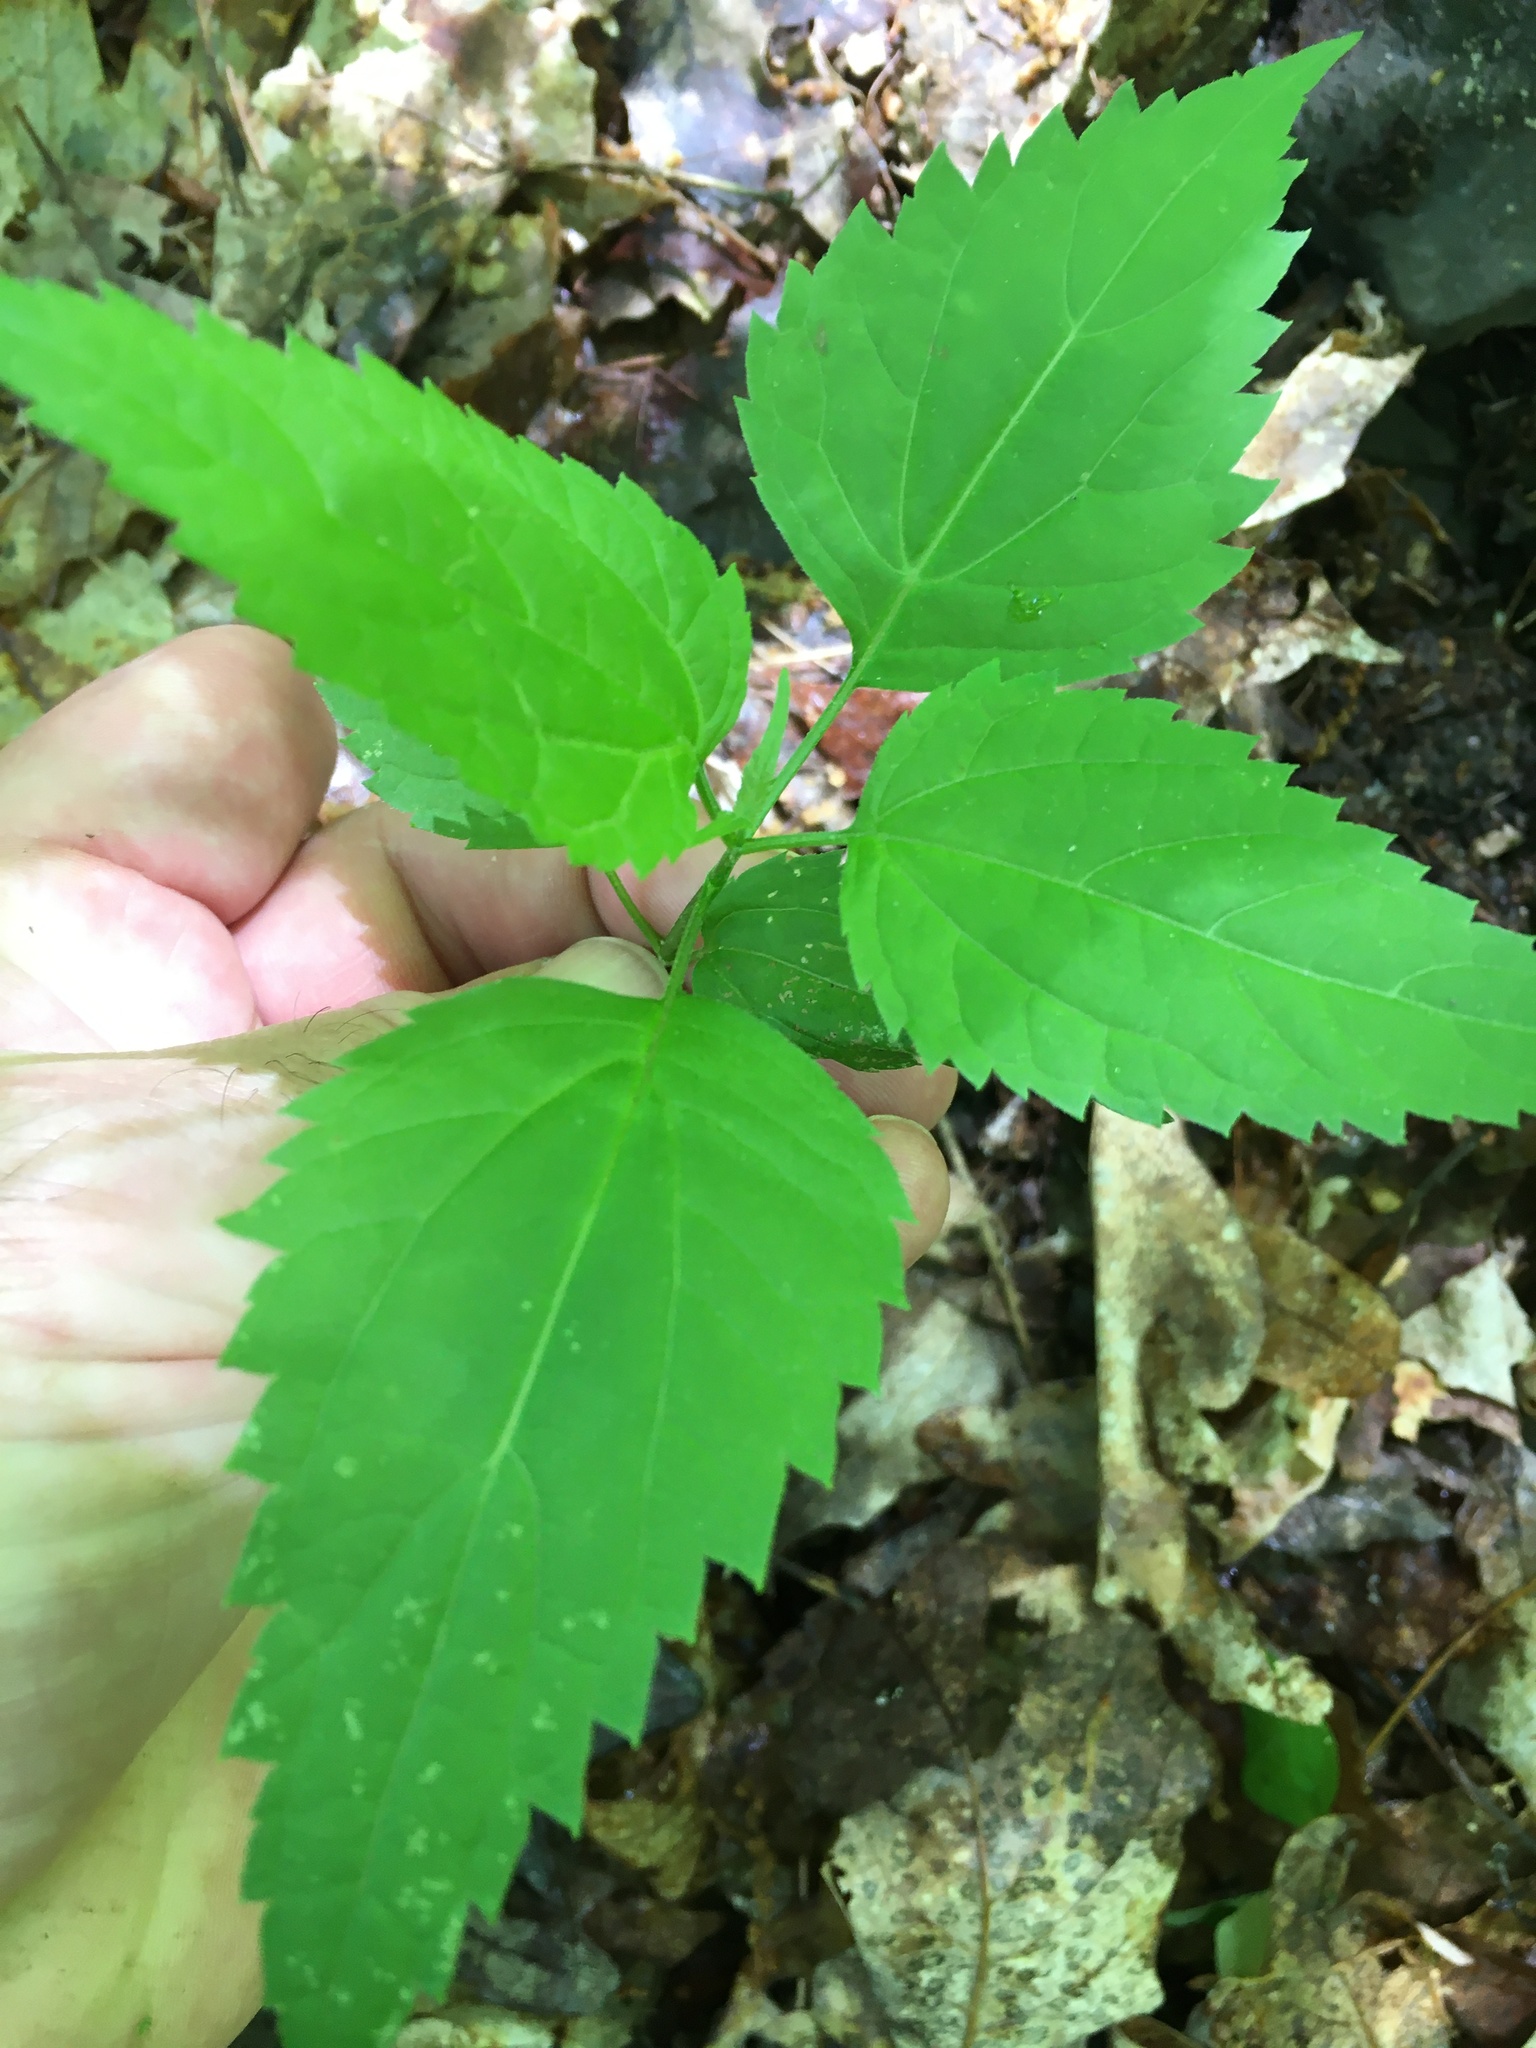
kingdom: Plantae
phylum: Tracheophyta
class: Magnoliopsida
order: Asterales
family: Asteraceae
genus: Ageratina
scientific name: Ageratina altissima
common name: White snakeroot
